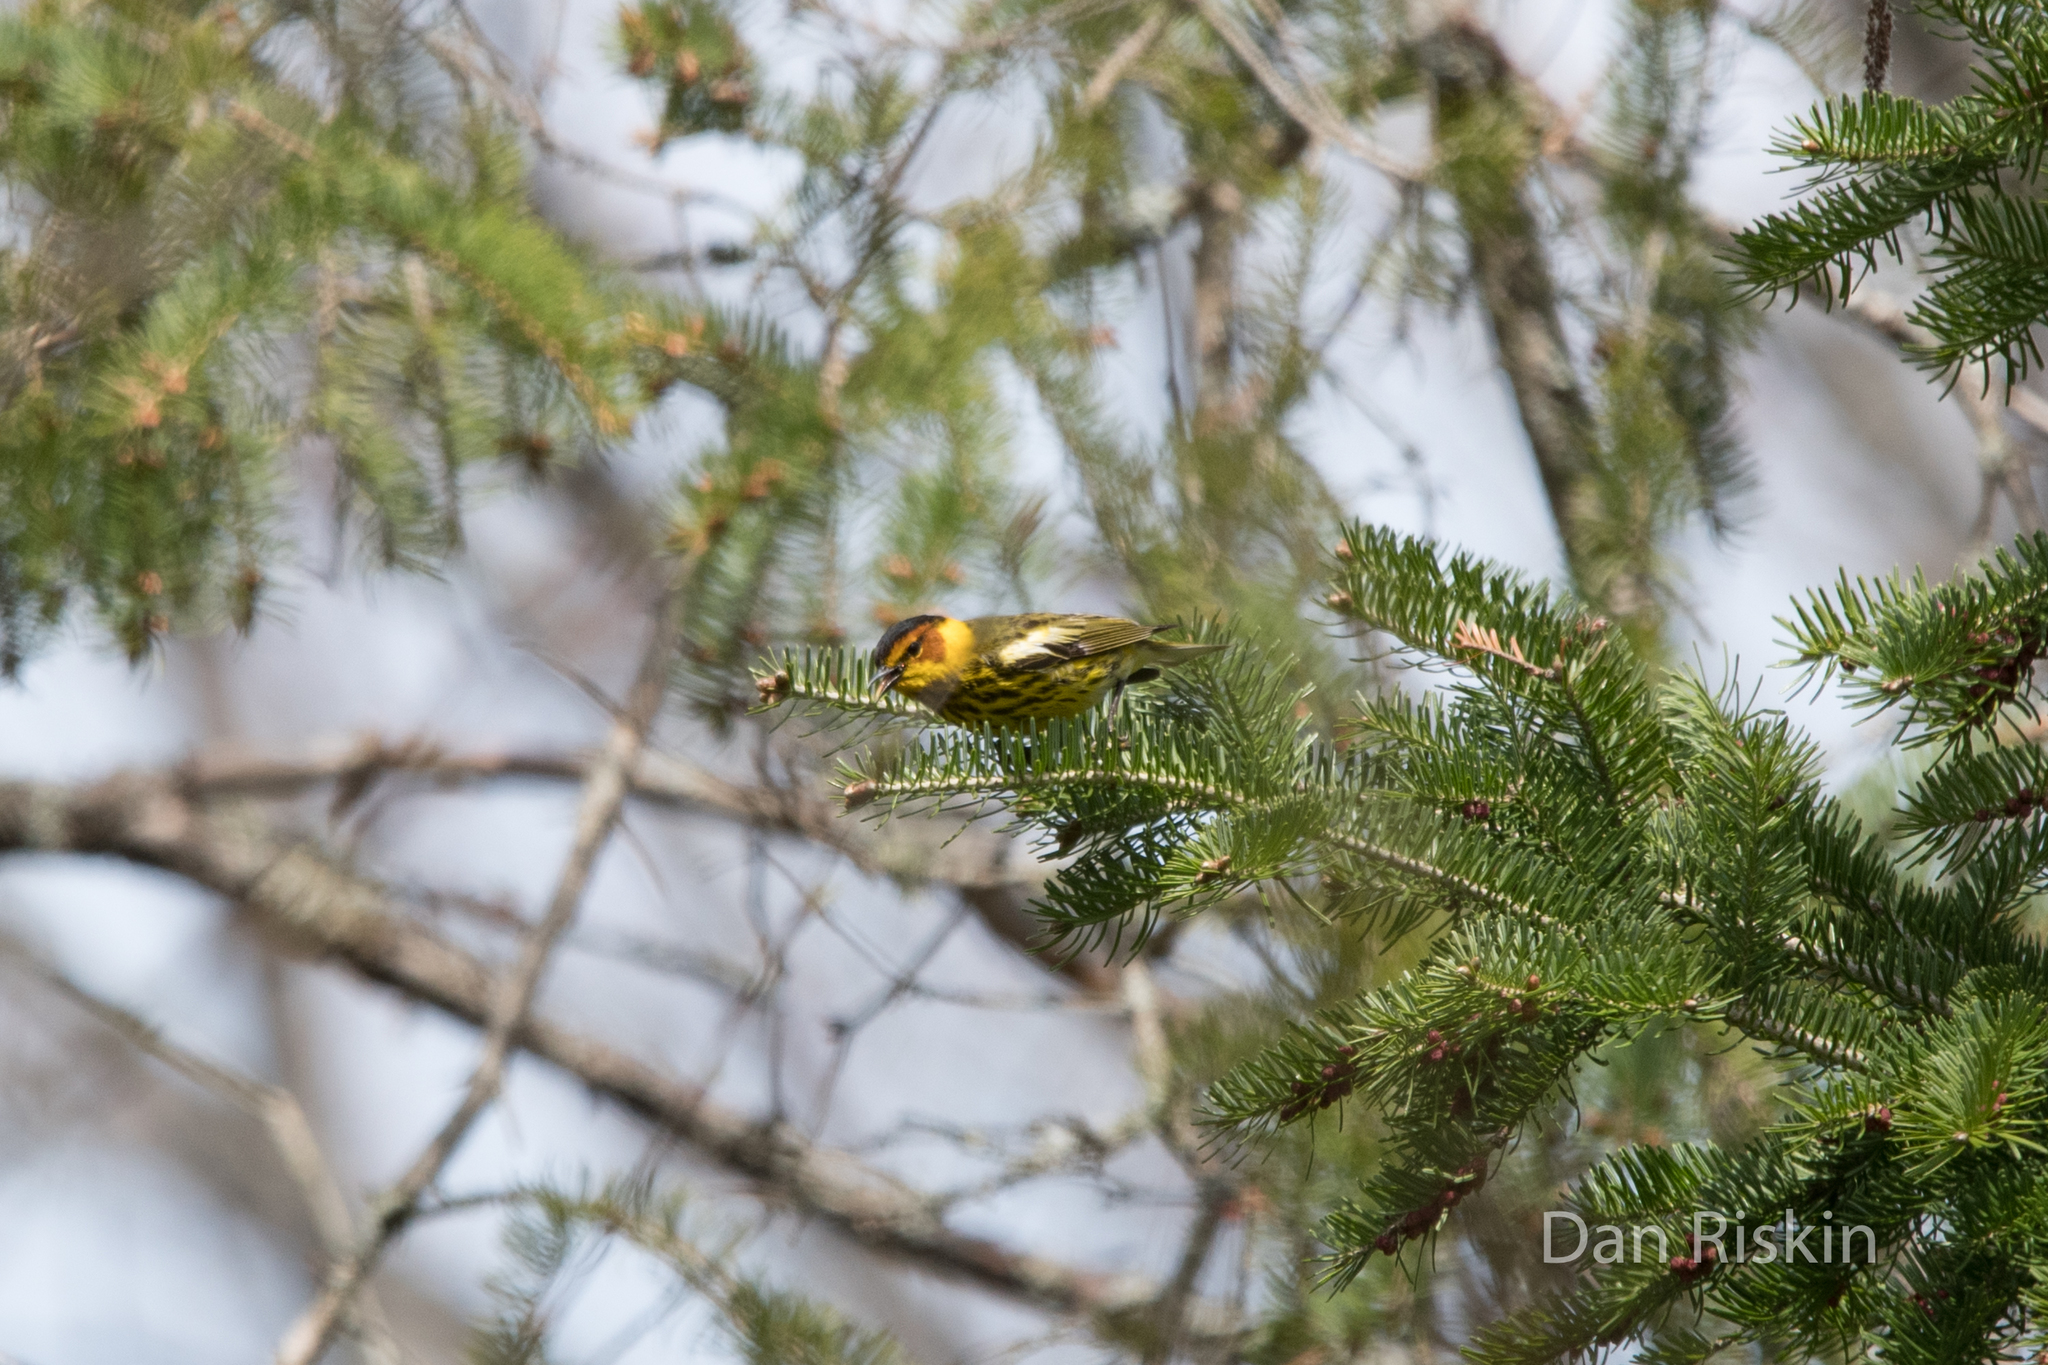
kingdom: Animalia
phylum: Chordata
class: Aves
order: Passeriformes
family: Parulidae
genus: Setophaga
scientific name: Setophaga tigrina
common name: Cape may warbler
